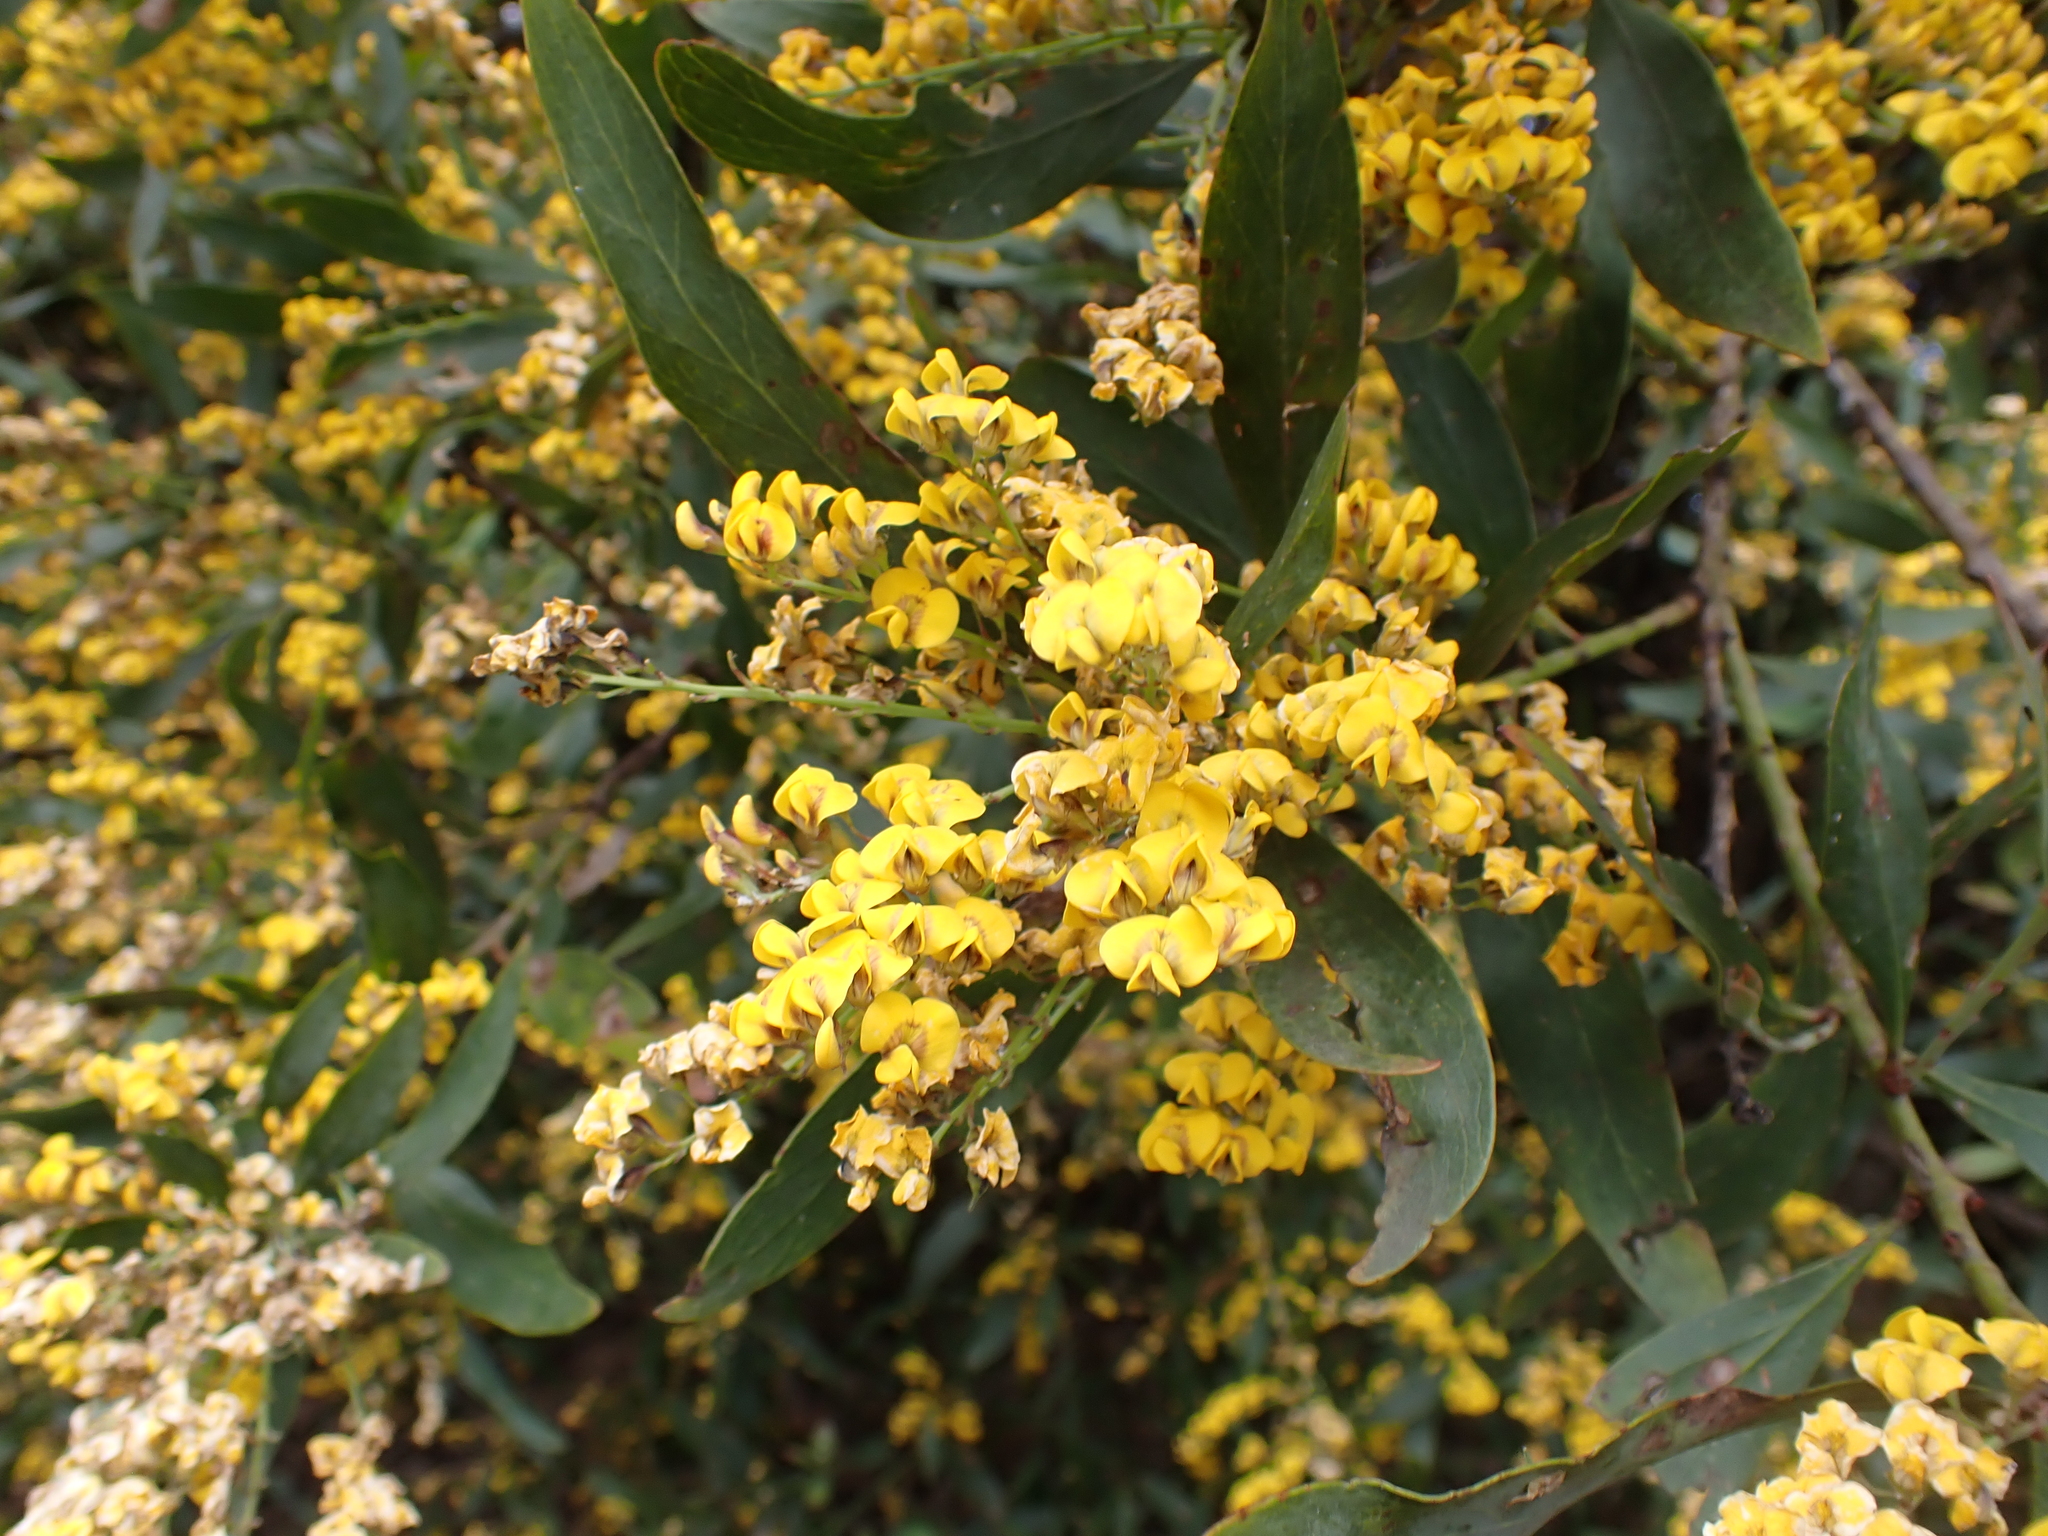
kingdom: Plantae
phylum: Tracheophyta
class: Magnoliopsida
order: Fabales
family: Fabaceae
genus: Daviesia
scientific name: Daviesia laxiflora
